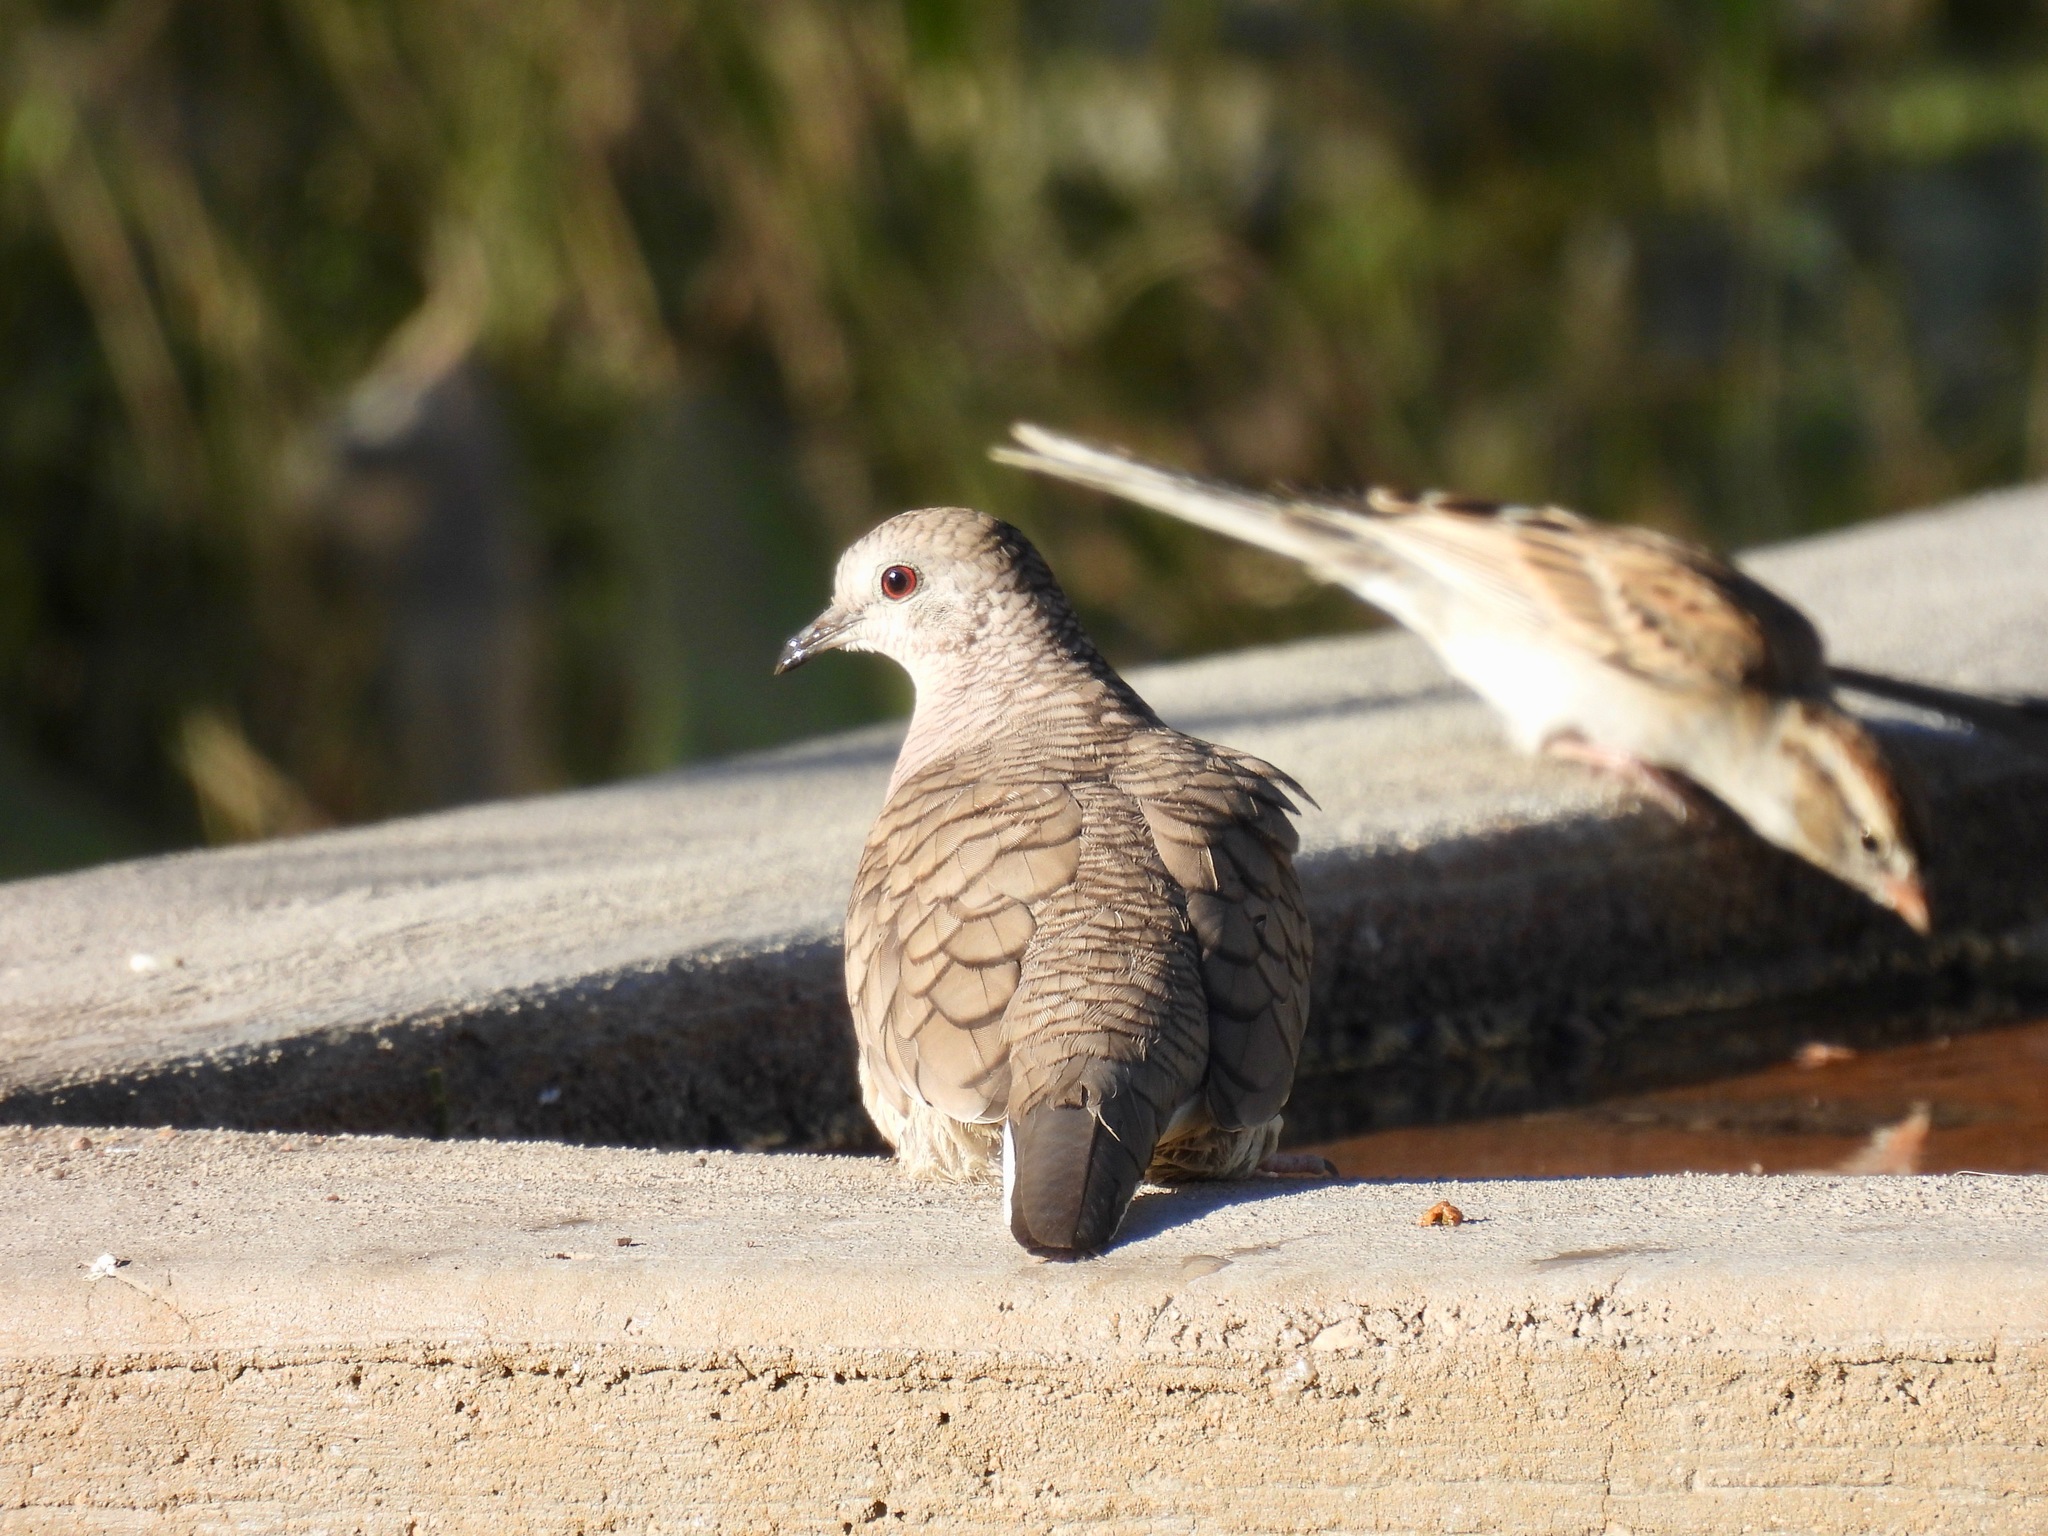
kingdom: Animalia
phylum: Chordata
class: Aves
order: Columbiformes
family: Columbidae
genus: Columbina
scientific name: Columbina inca
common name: Inca dove
